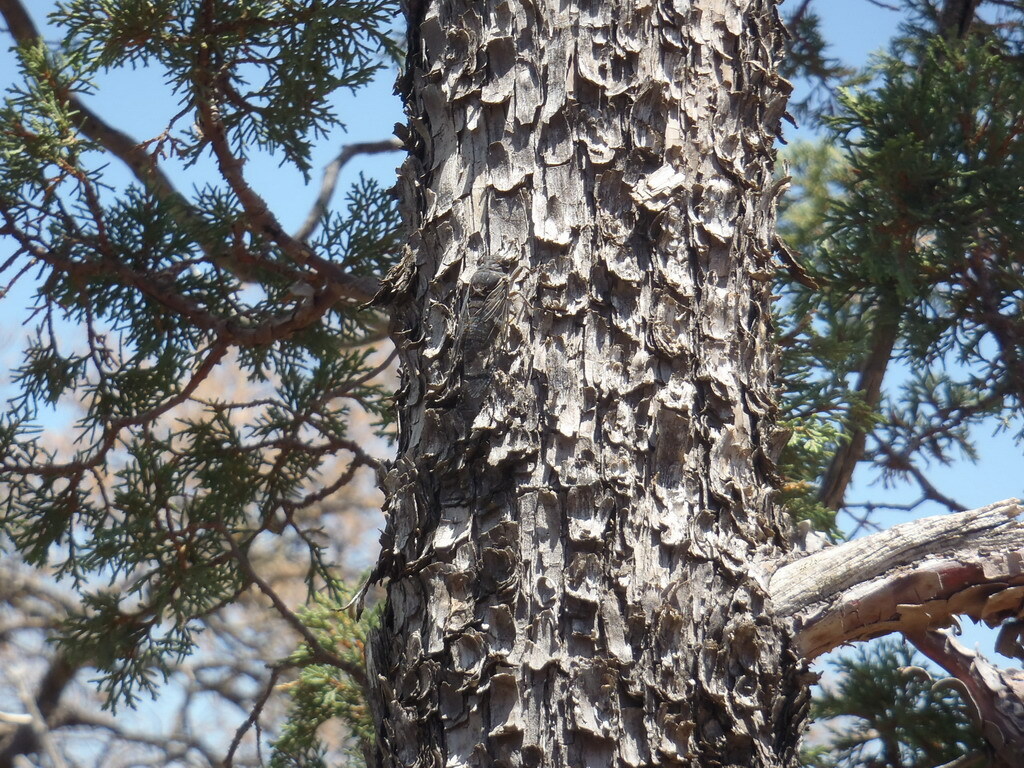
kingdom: Animalia
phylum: Arthropoda
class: Insecta
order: Hemiptera
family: Cicadidae
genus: Hadoa
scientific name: Hadoa chisosensis
